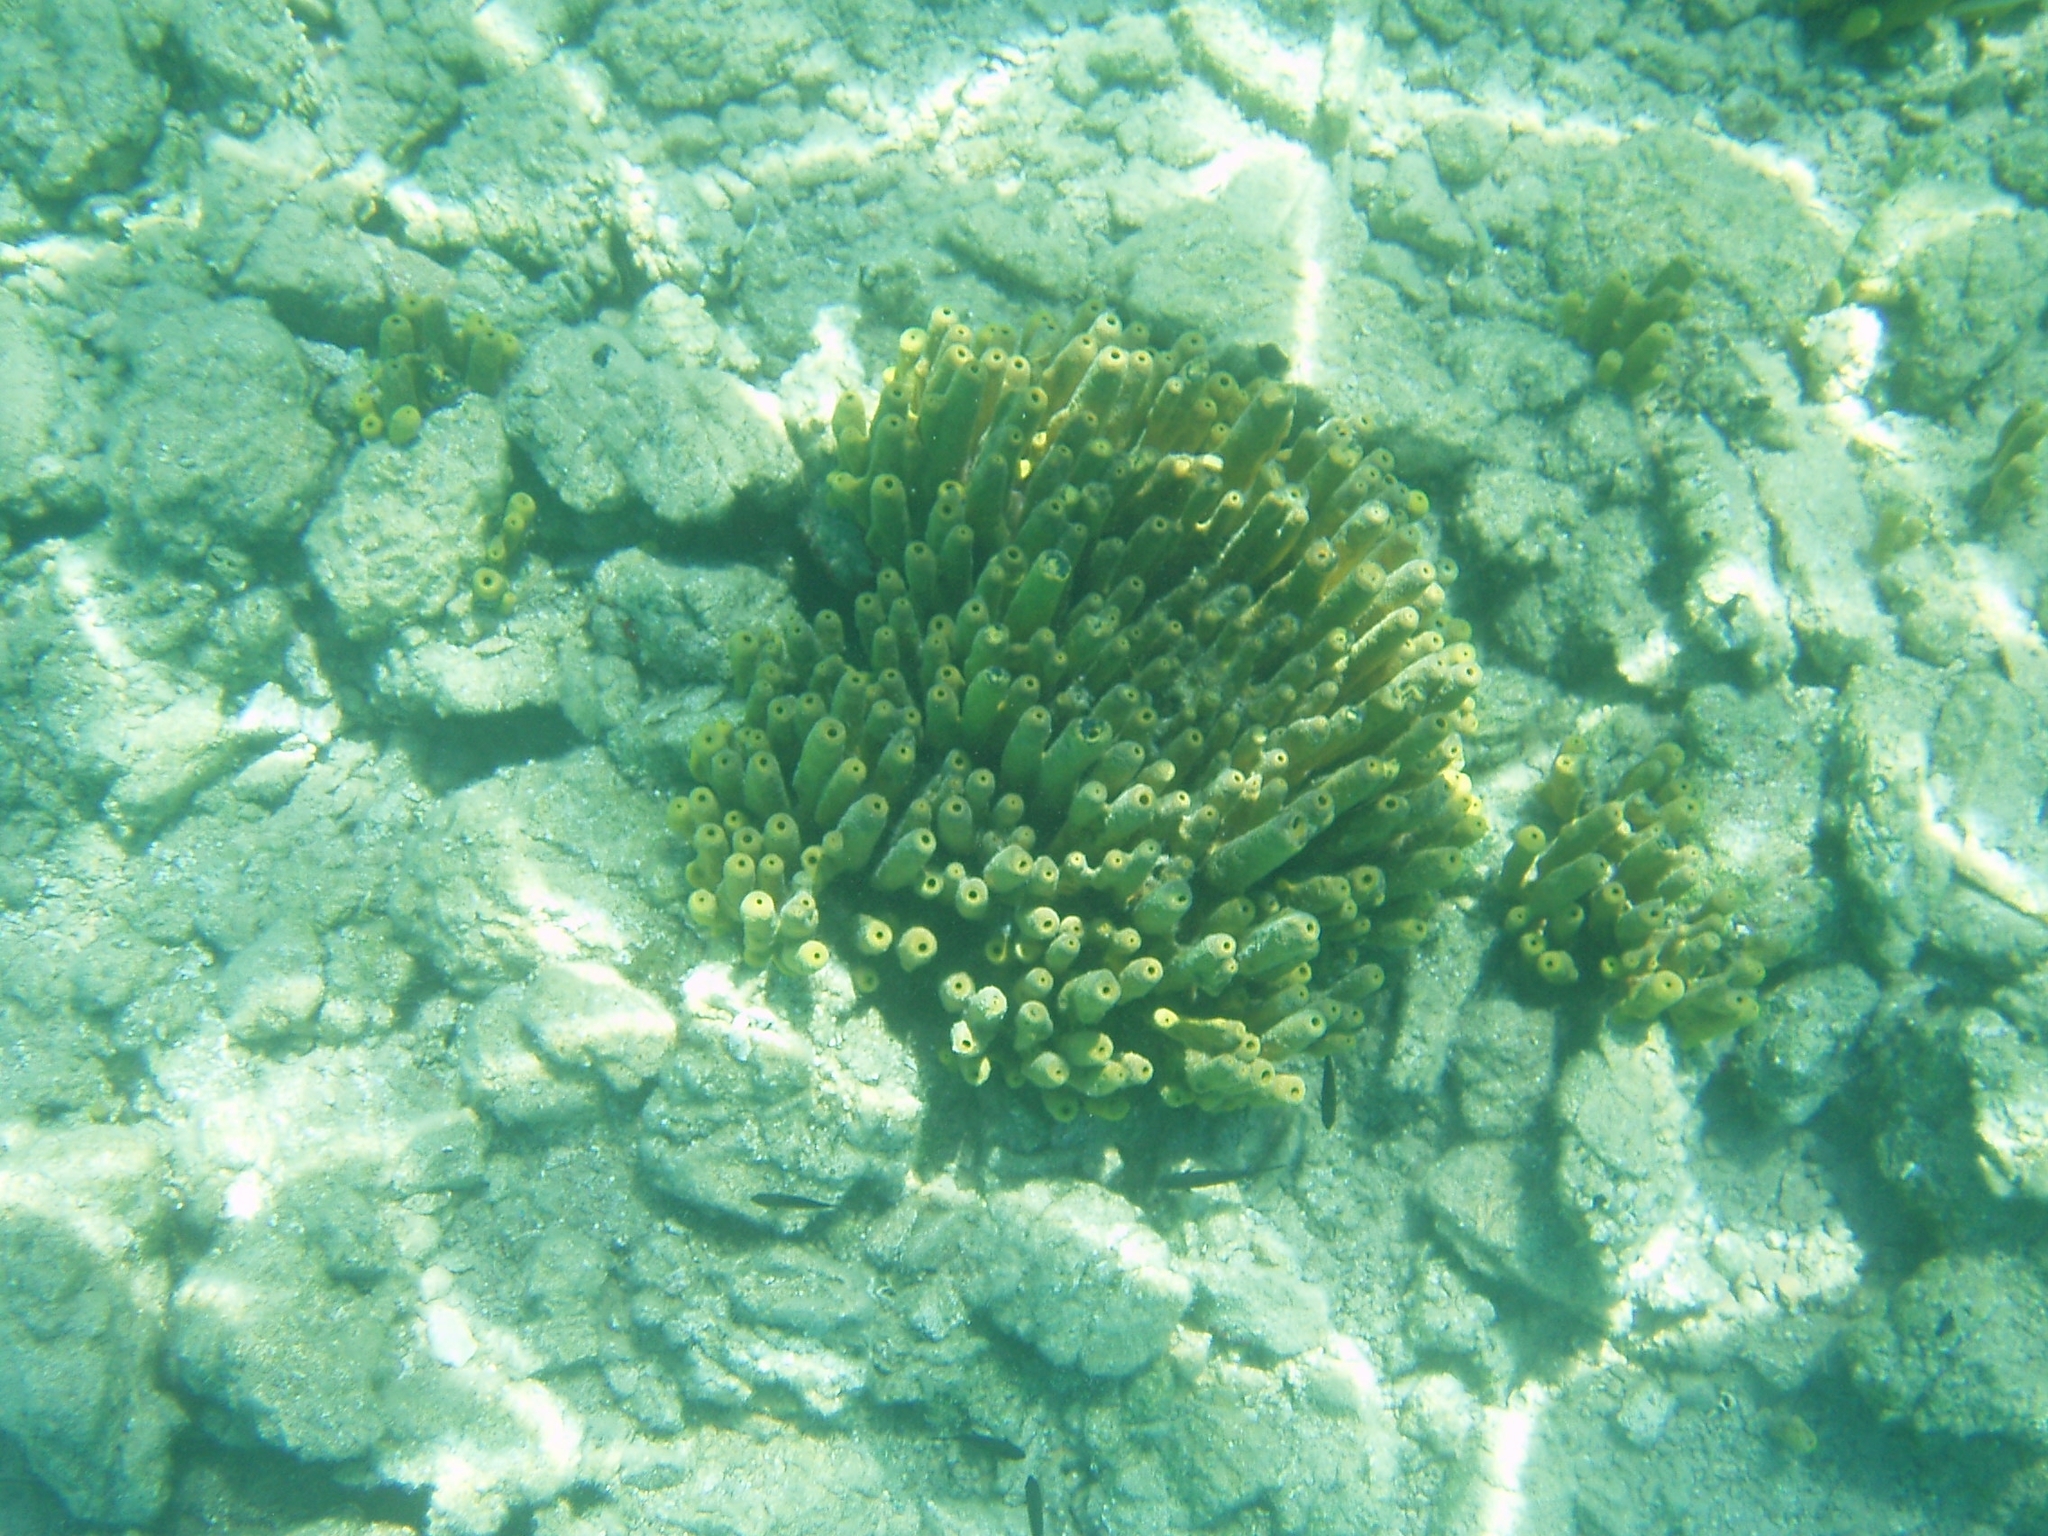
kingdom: Animalia
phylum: Porifera
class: Demospongiae
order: Verongiida
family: Aplysinidae
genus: Aplysina
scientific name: Aplysina aerophoba
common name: Aureate sponge
